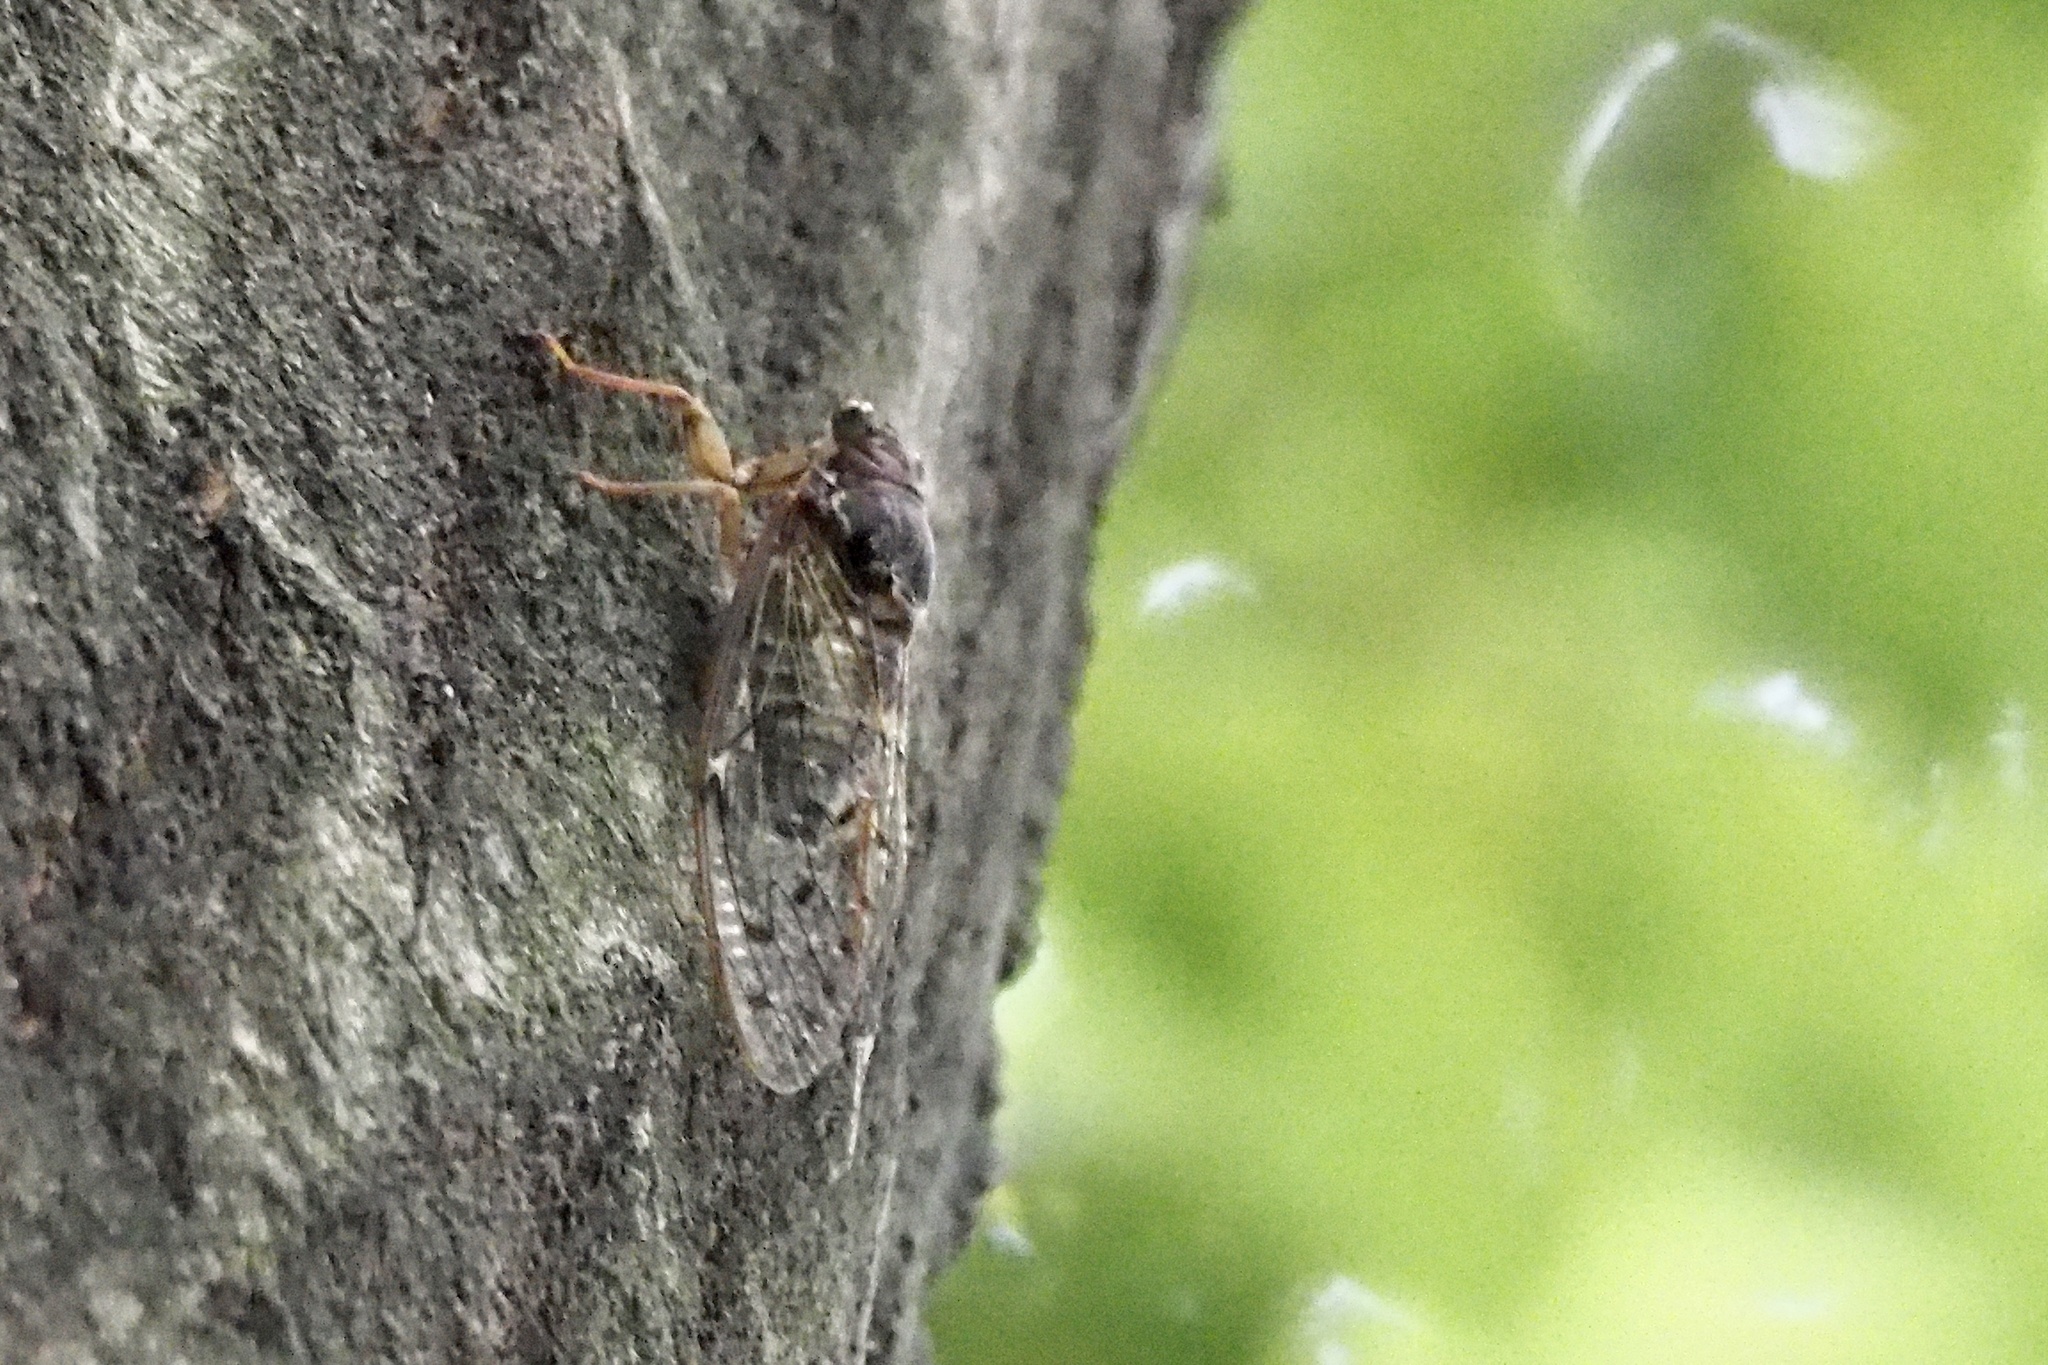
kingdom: Animalia
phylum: Arthropoda
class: Insecta
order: Hemiptera
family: Cicadidae
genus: Tanna
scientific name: Tanna japonensis
